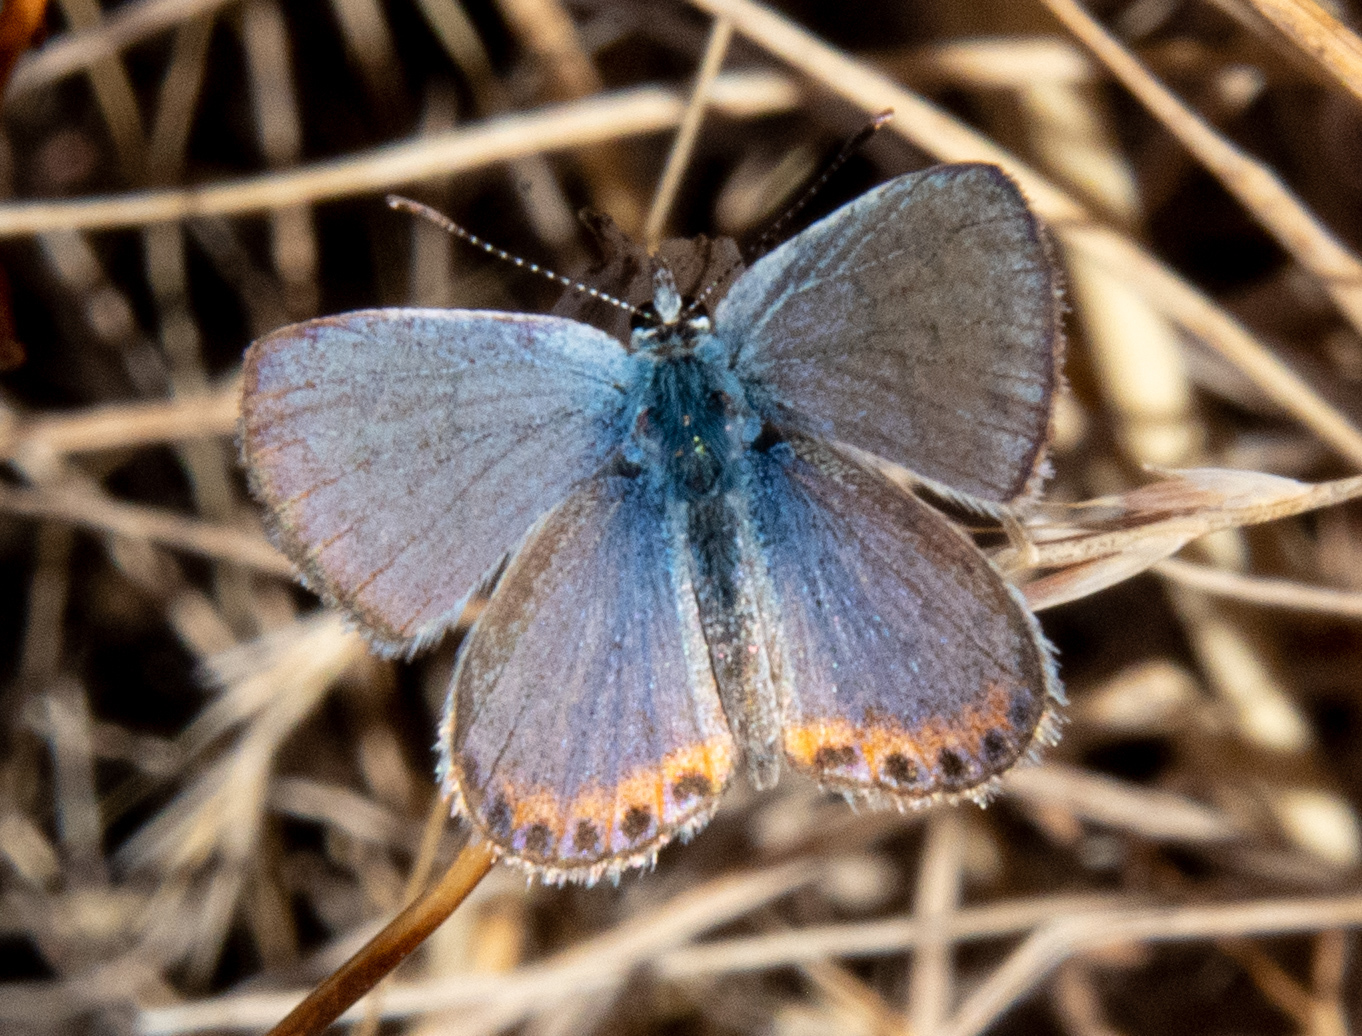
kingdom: Animalia
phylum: Arthropoda
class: Insecta
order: Lepidoptera
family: Lycaenidae
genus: Icaricia
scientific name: Icaricia acmon
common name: Acmon blue
